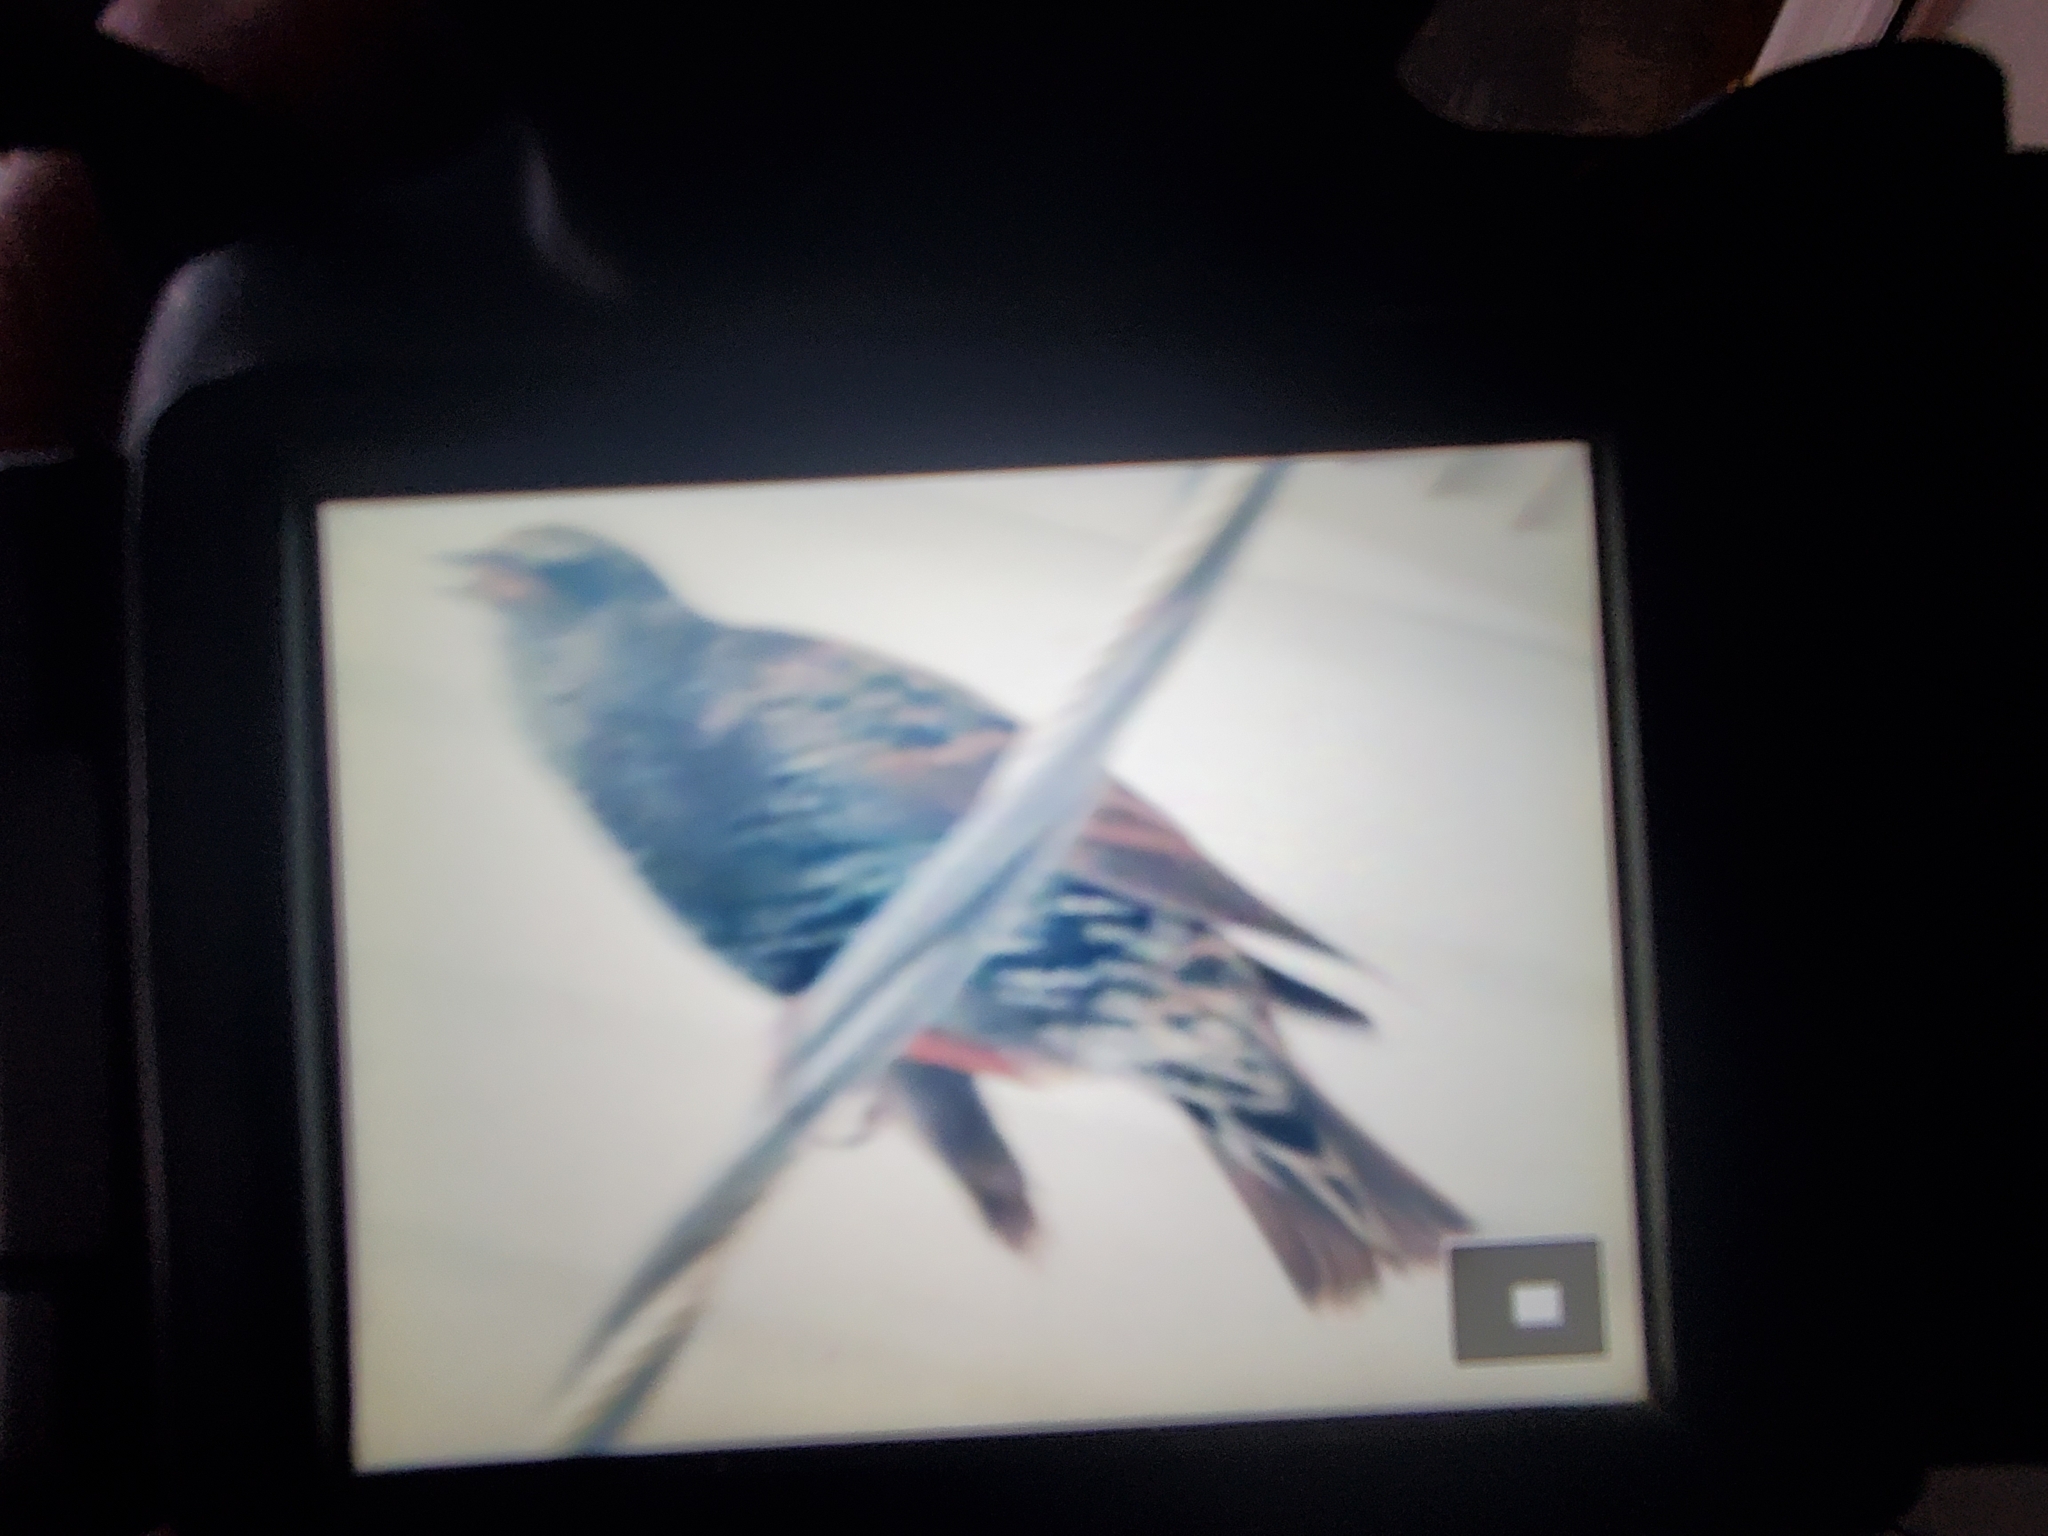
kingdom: Animalia
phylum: Chordata
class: Aves
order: Passeriformes
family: Sturnidae
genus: Sturnus
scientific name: Sturnus vulgaris
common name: Common starling
